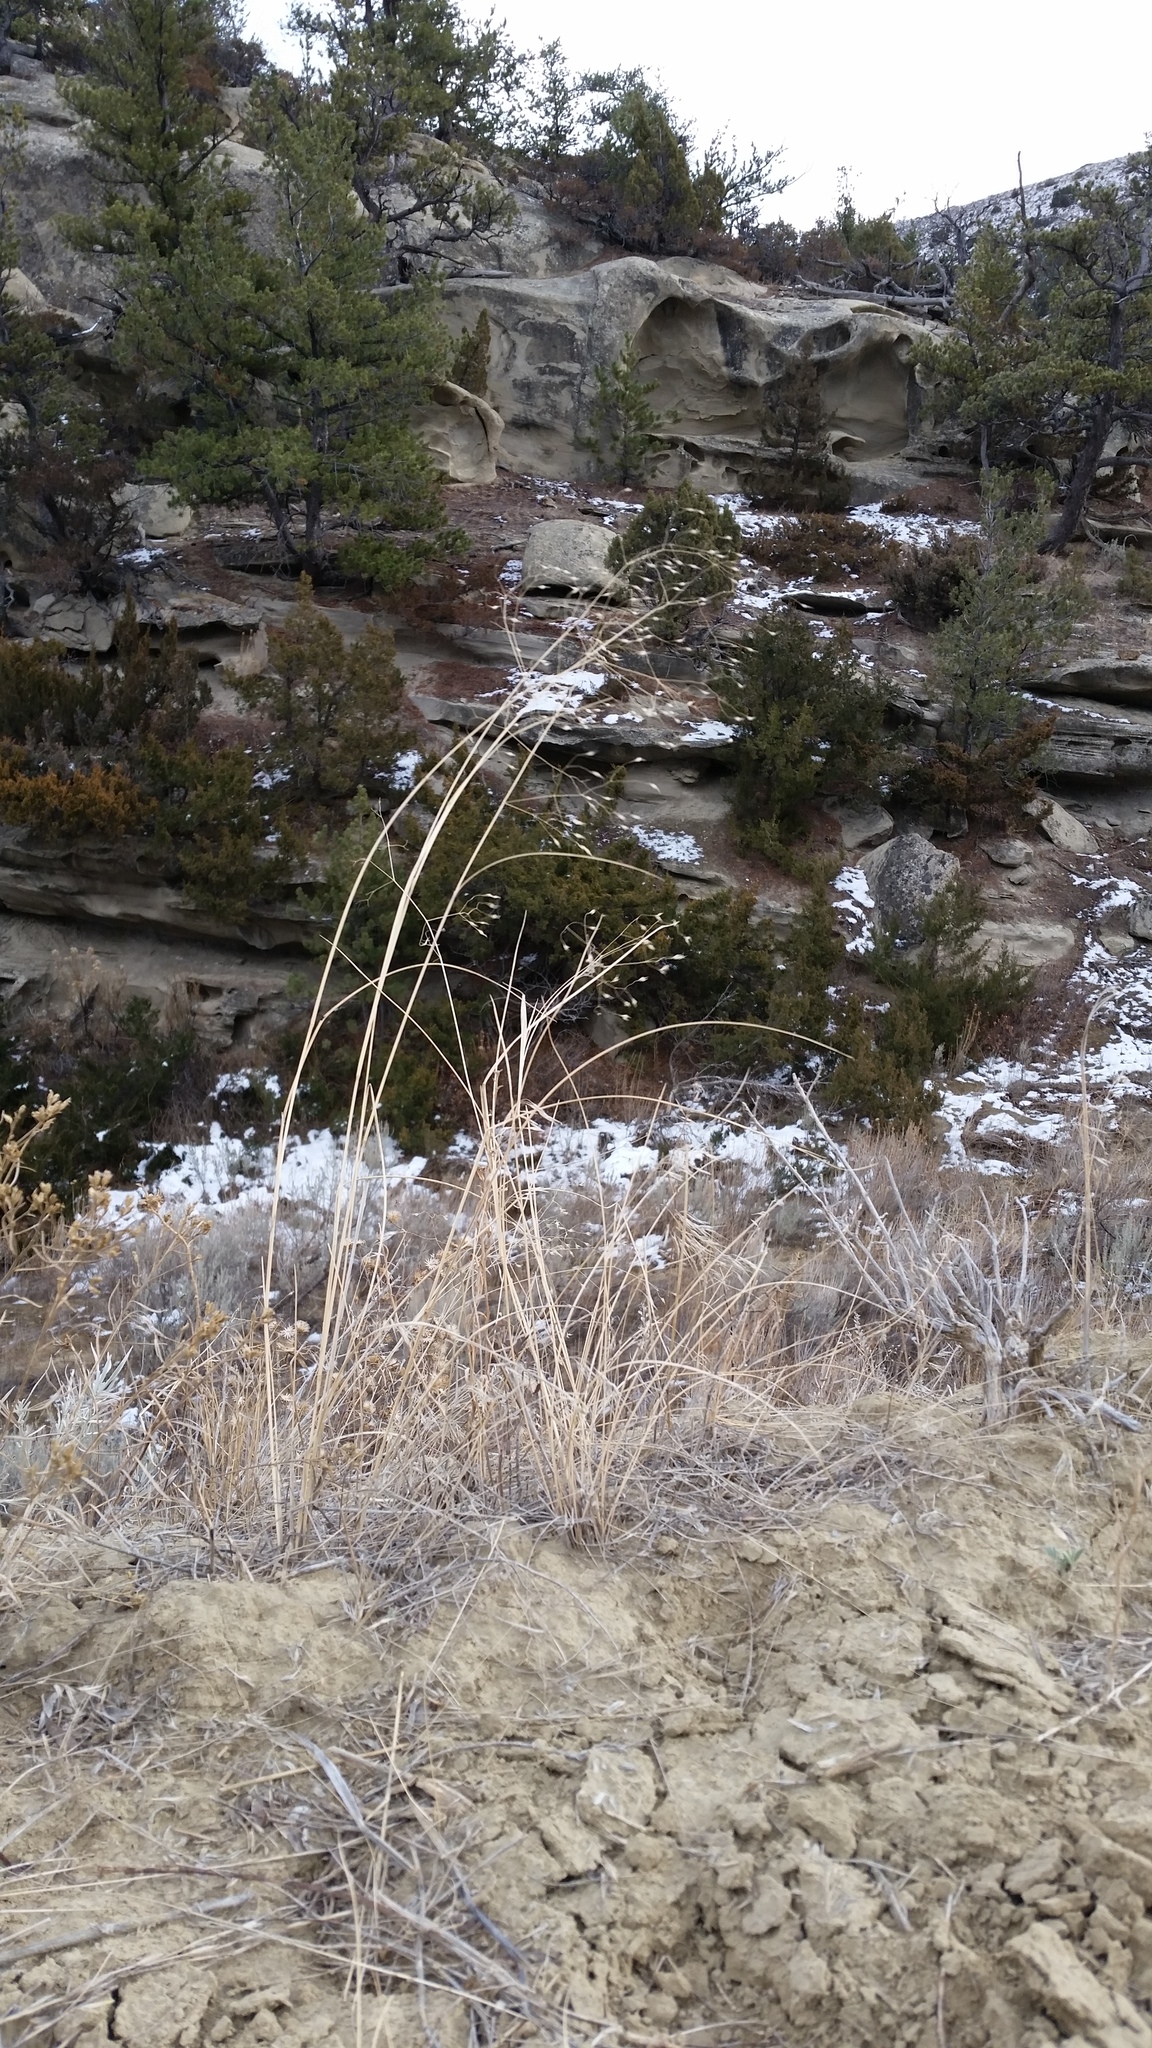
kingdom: Plantae
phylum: Tracheophyta
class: Liliopsida
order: Poales
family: Poaceae
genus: Eriocoma
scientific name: Eriocoma hymenoides
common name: Indian mountain ricegrass
